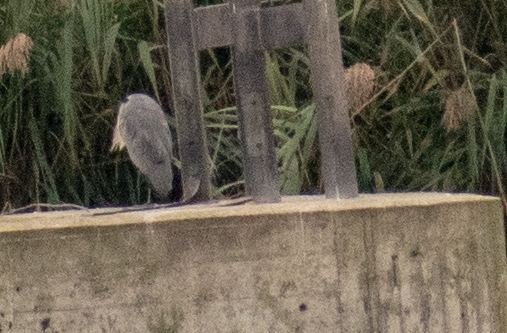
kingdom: Animalia
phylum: Chordata
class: Aves
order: Pelecaniformes
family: Ardeidae
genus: Ardea
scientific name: Ardea cinerea
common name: Grey heron
